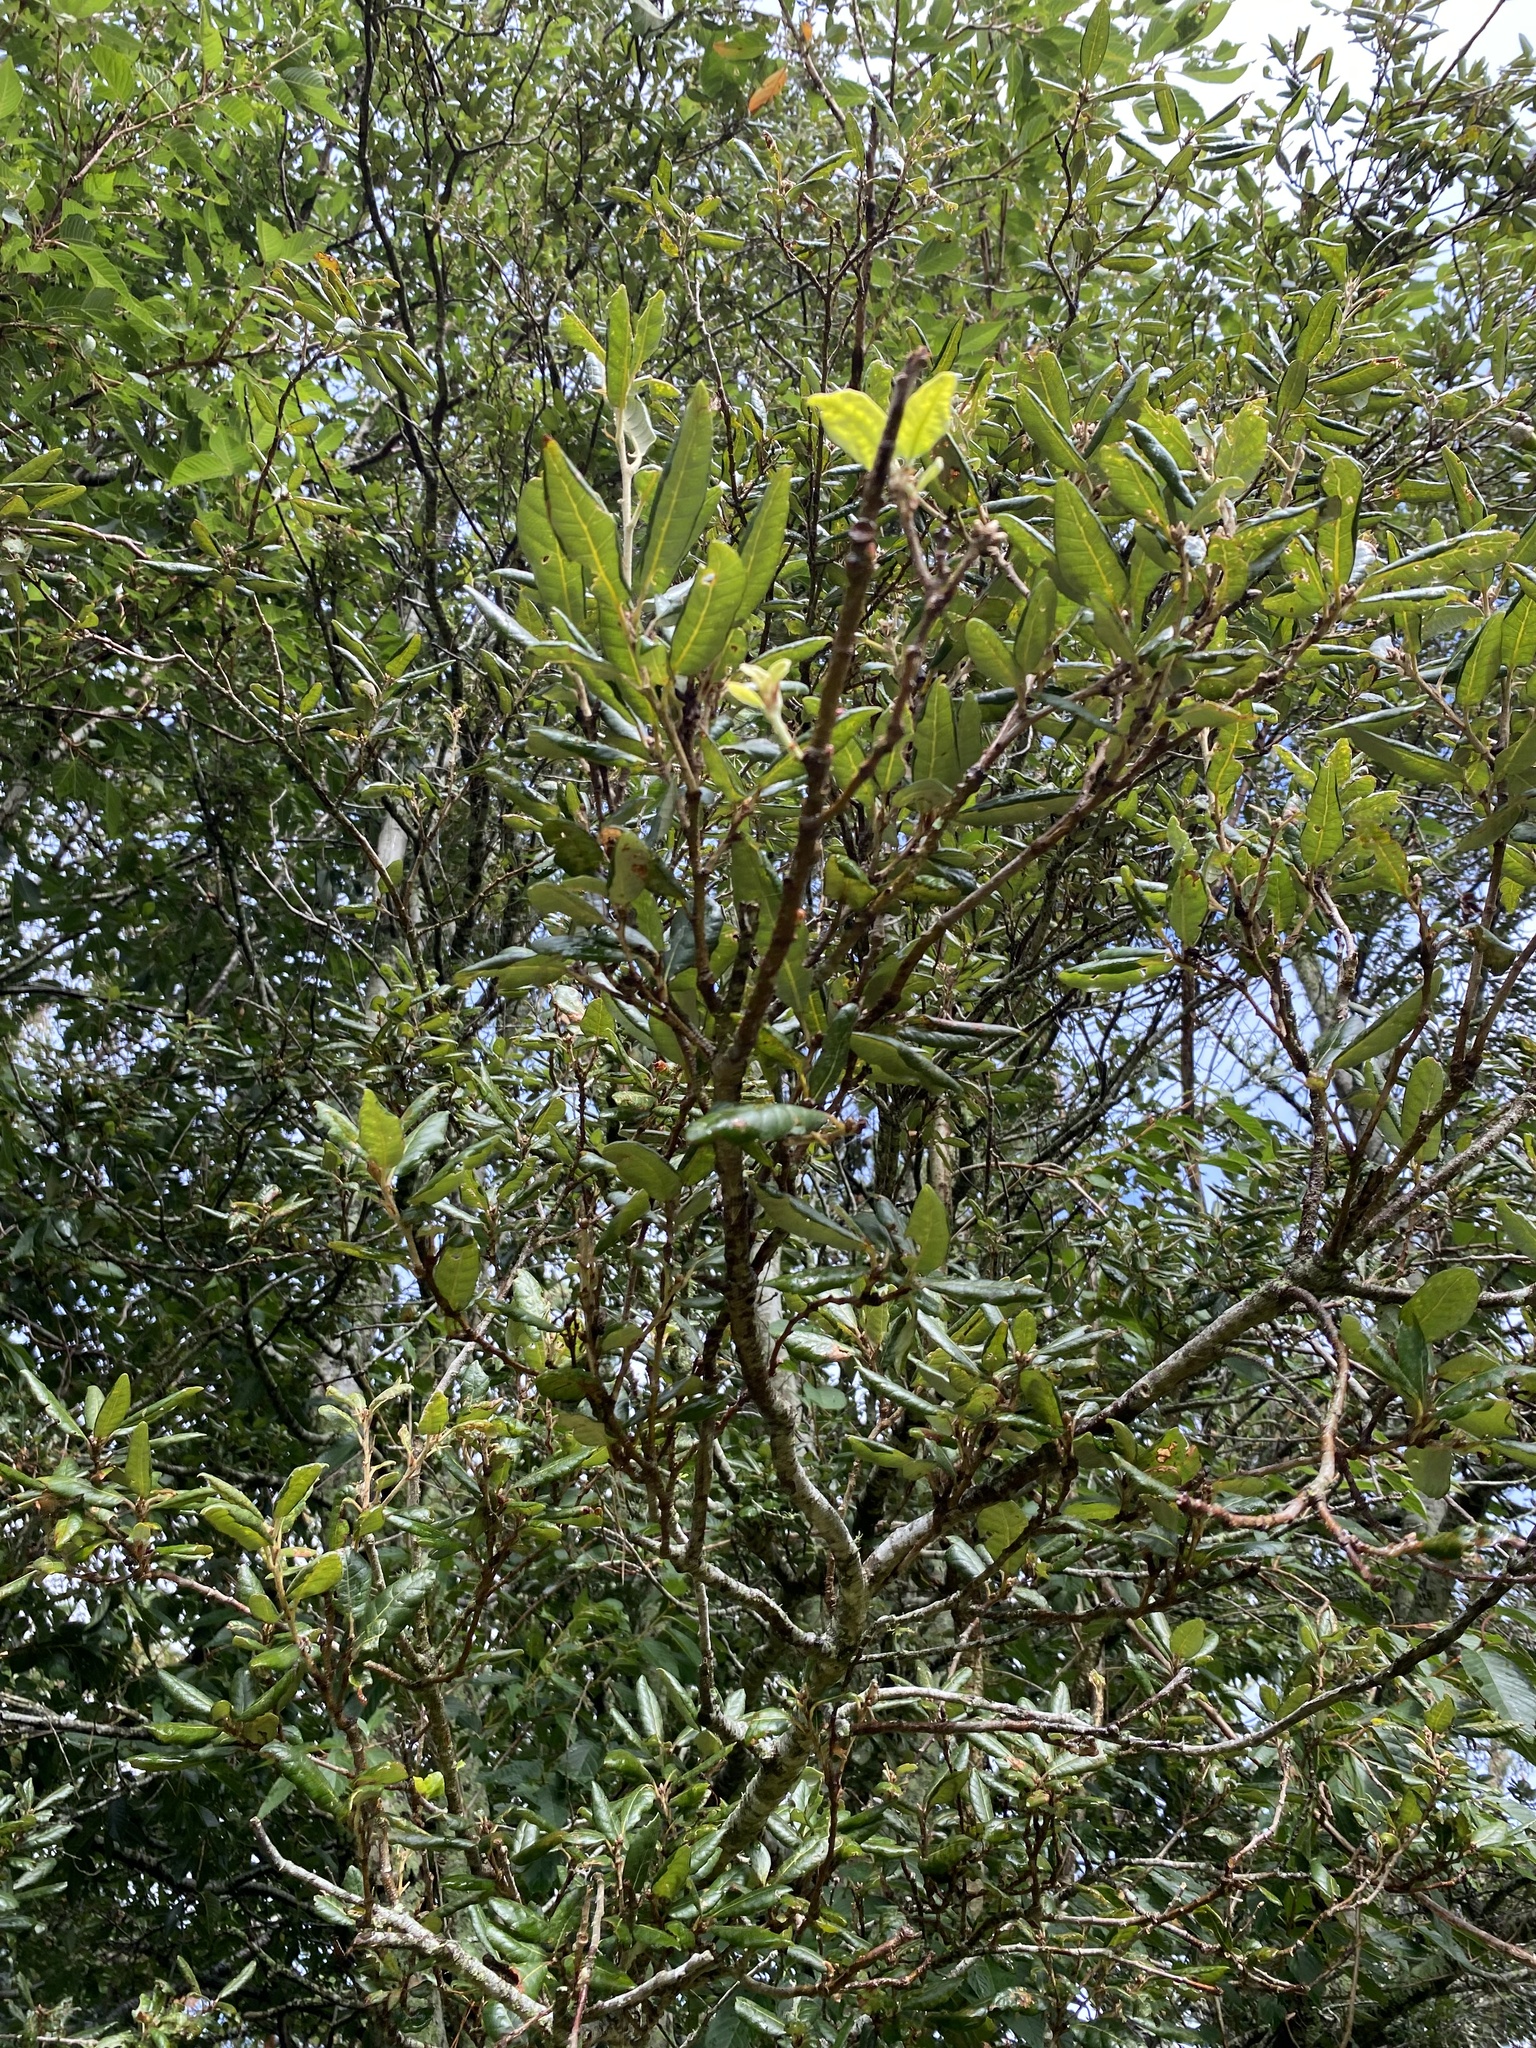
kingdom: Plantae
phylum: Tracheophyta
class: Magnoliopsida
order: Fagales
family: Fagaceae
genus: Quercus
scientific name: Quercus ilex
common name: Evergreen oak
